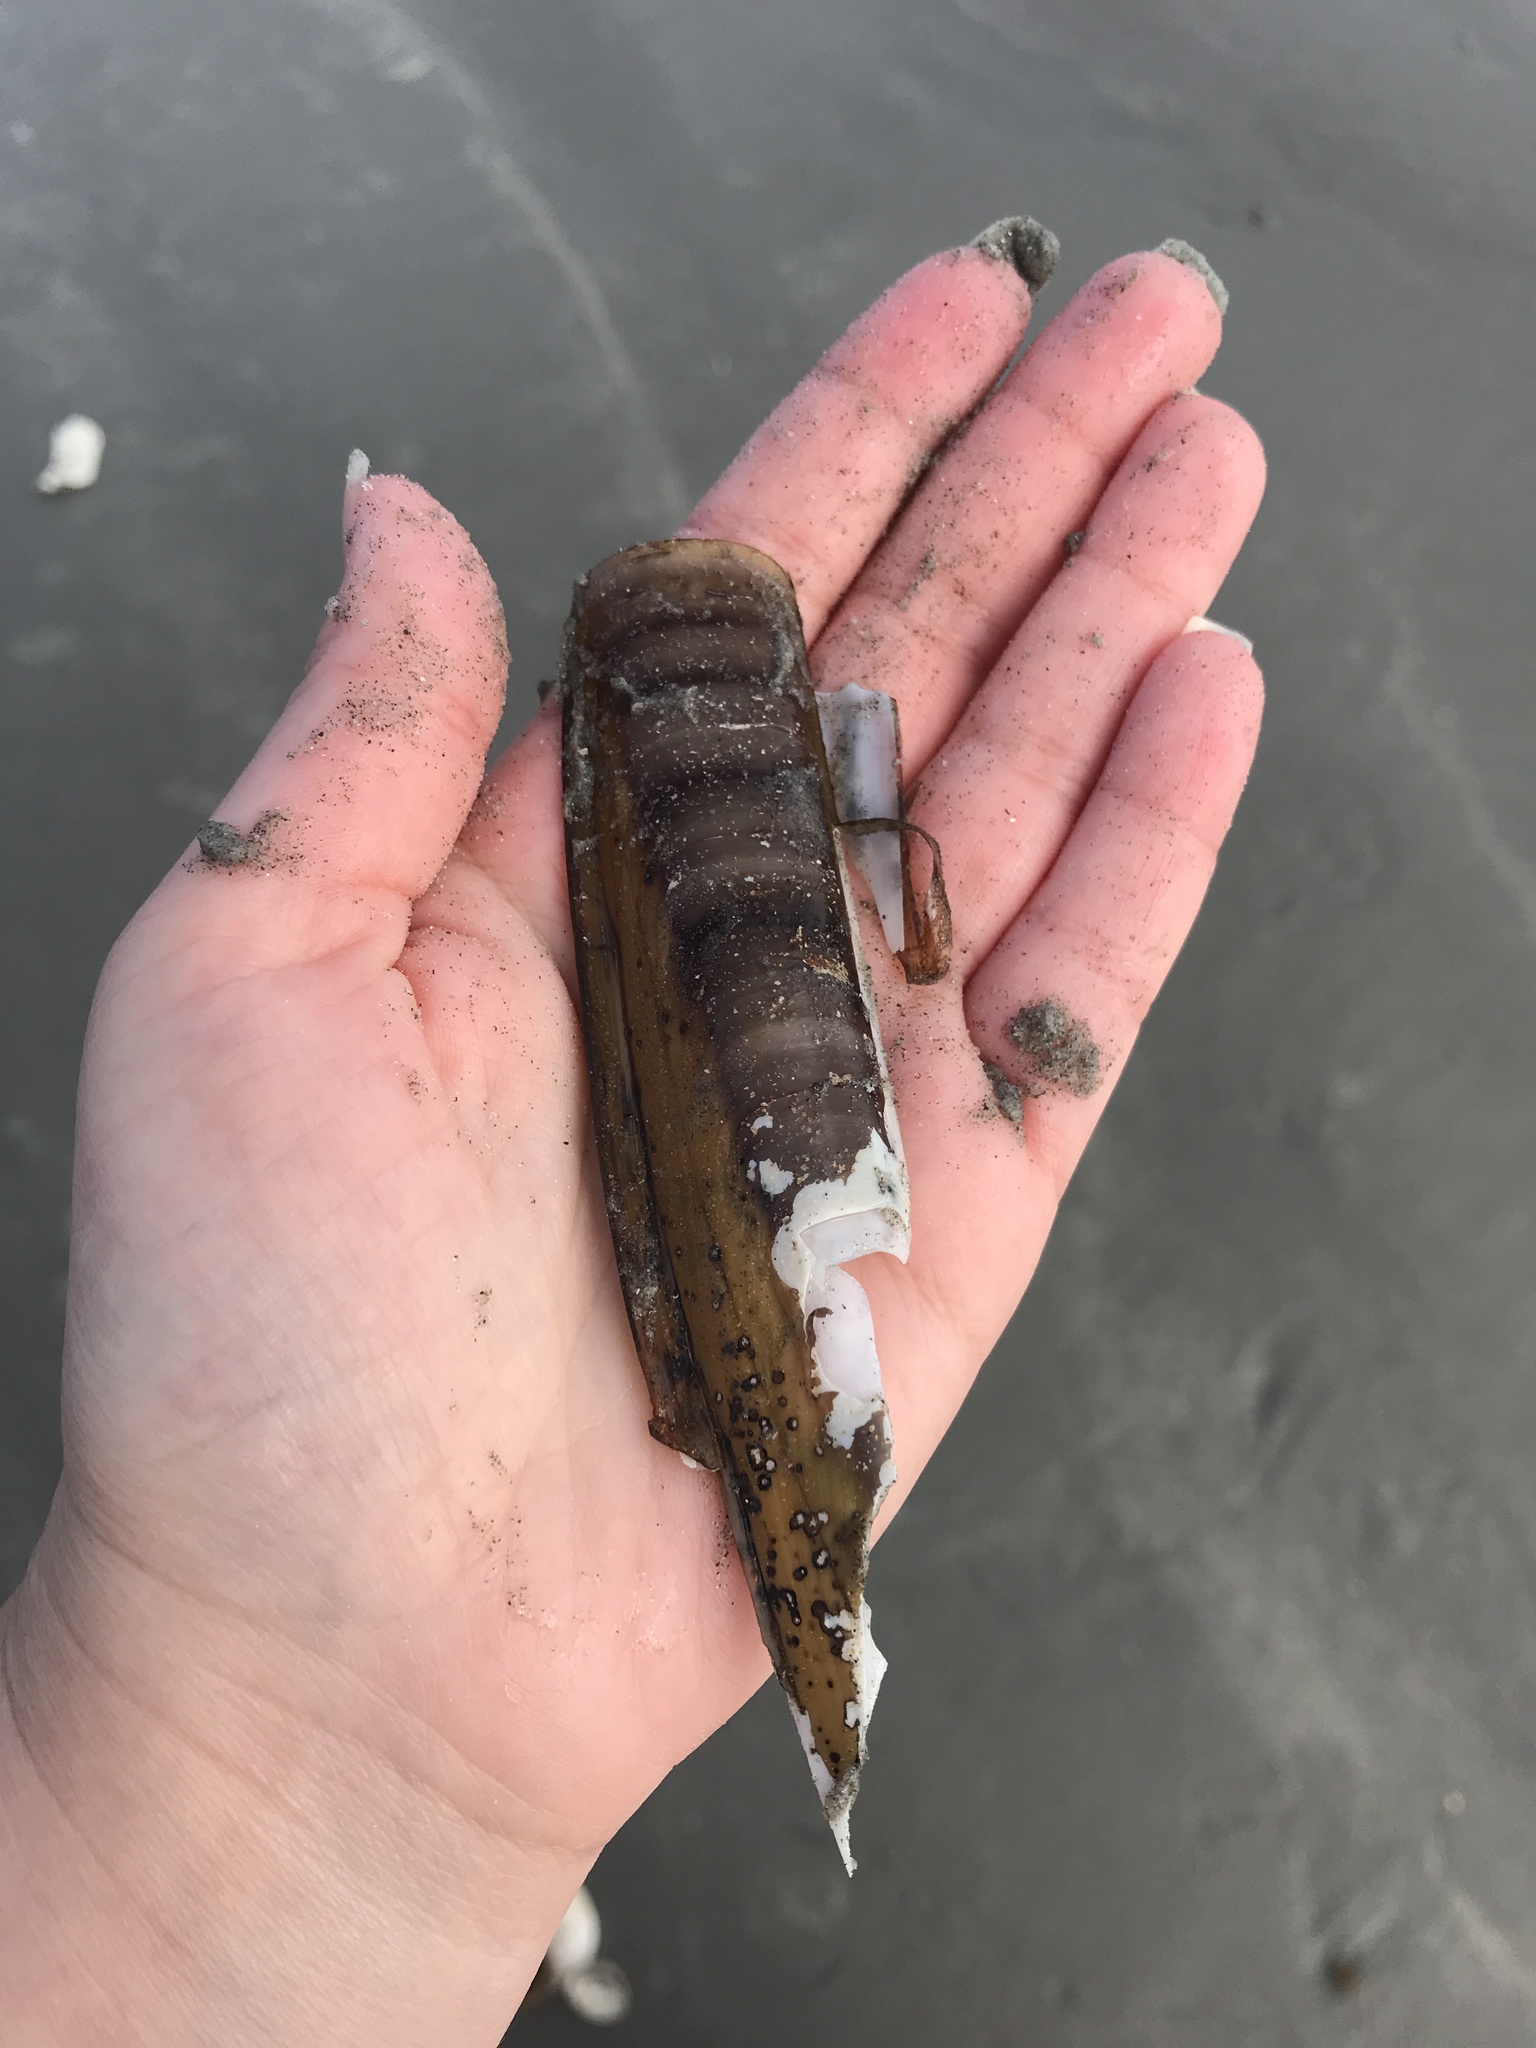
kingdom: Animalia
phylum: Mollusca
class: Bivalvia
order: Adapedonta
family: Pharidae
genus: Ensis
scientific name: Ensis leei
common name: American jack knife clam
